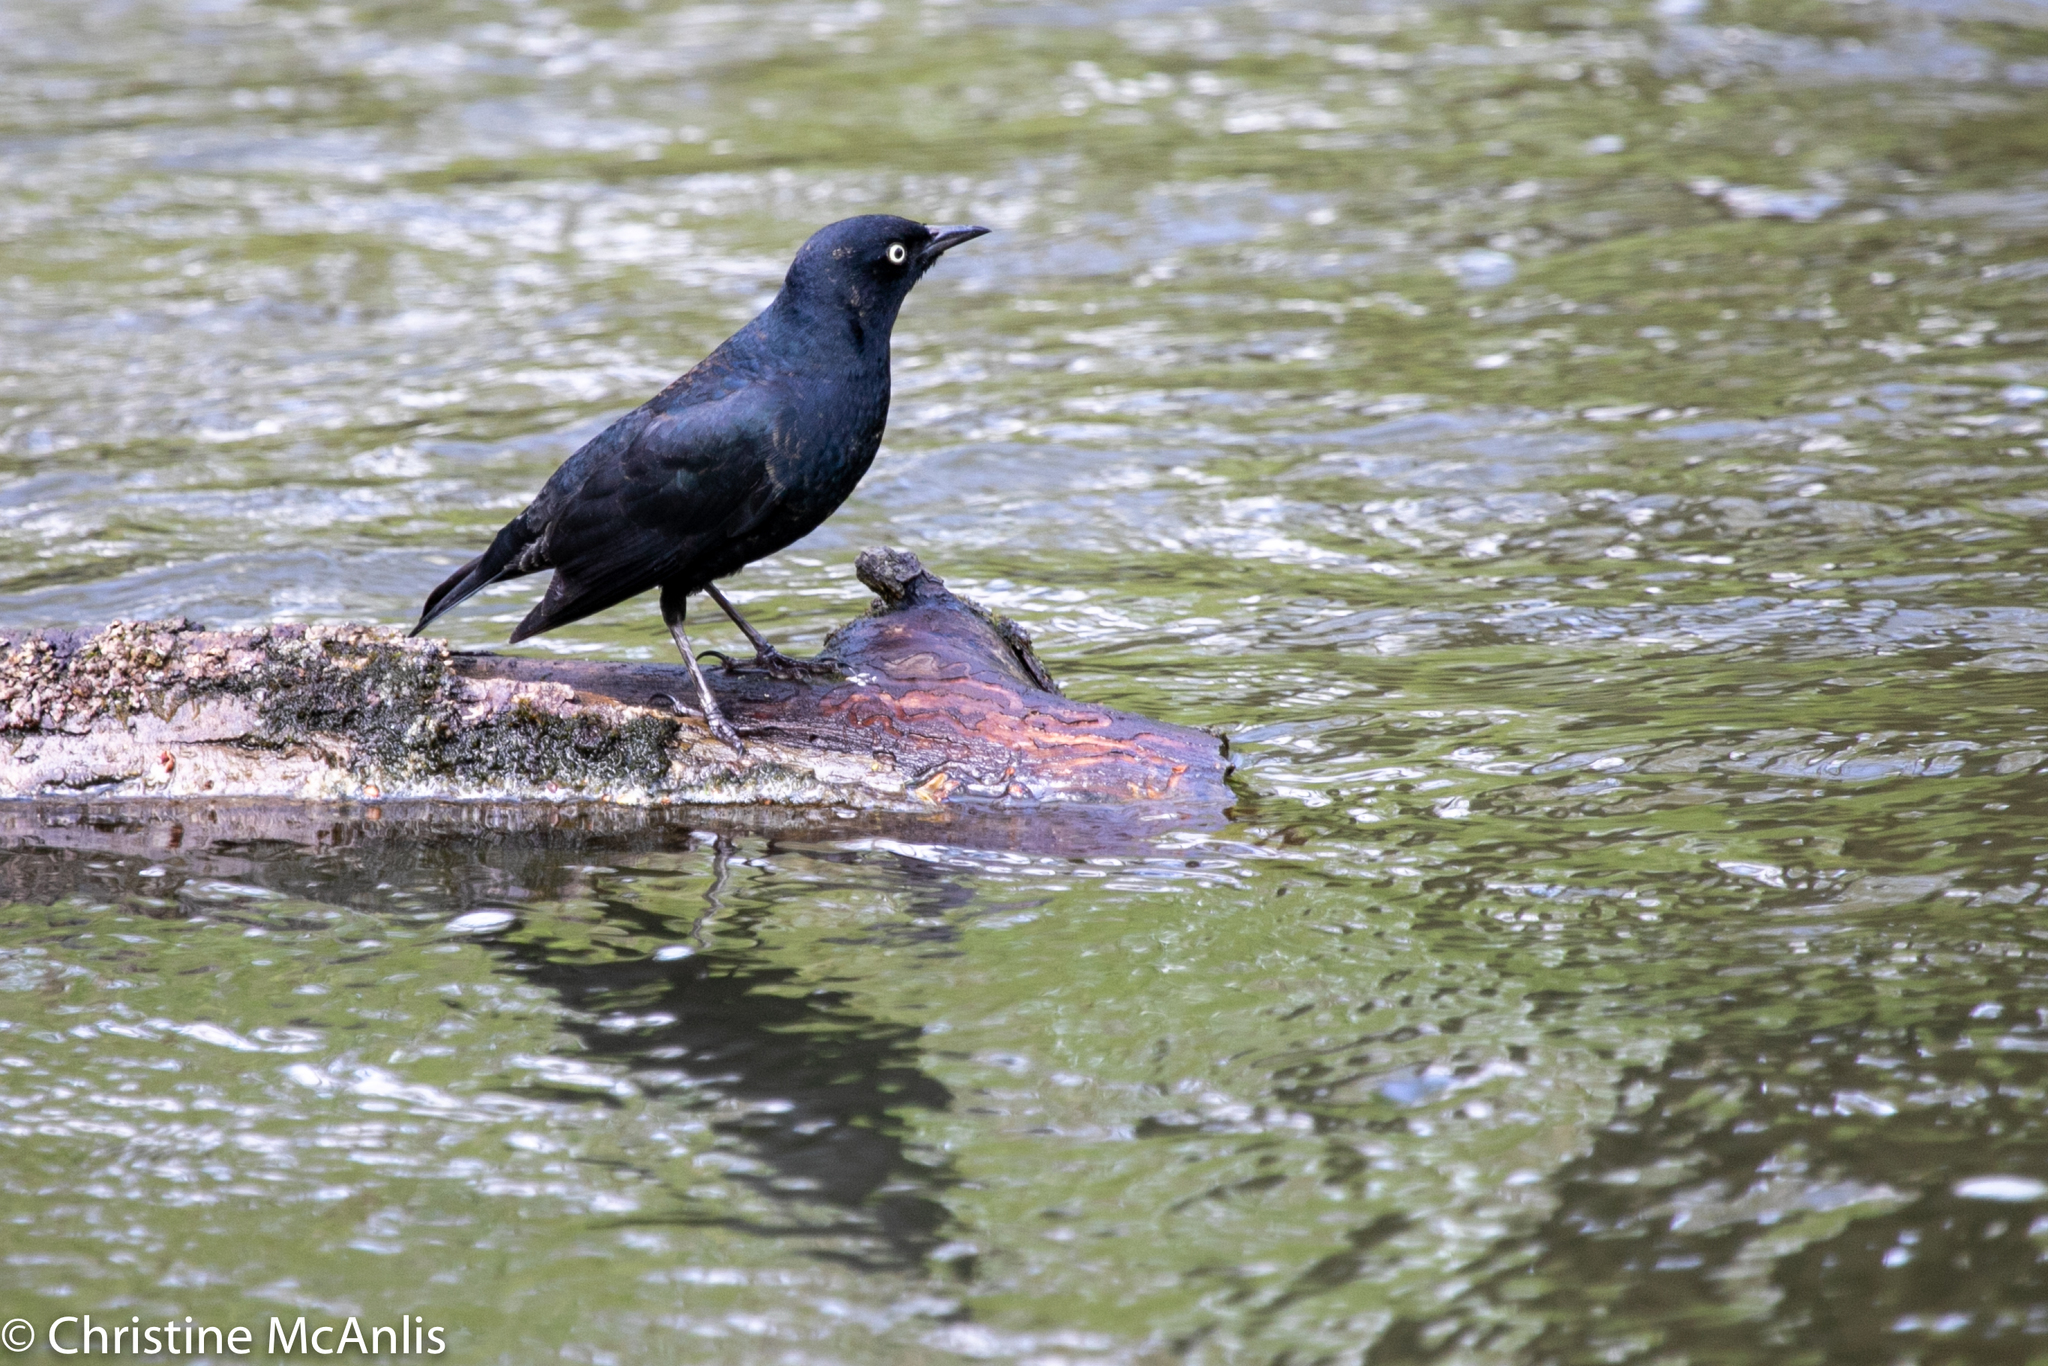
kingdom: Animalia
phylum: Chordata
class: Aves
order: Passeriformes
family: Icteridae
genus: Euphagus
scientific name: Euphagus carolinus
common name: Rusty blackbird
